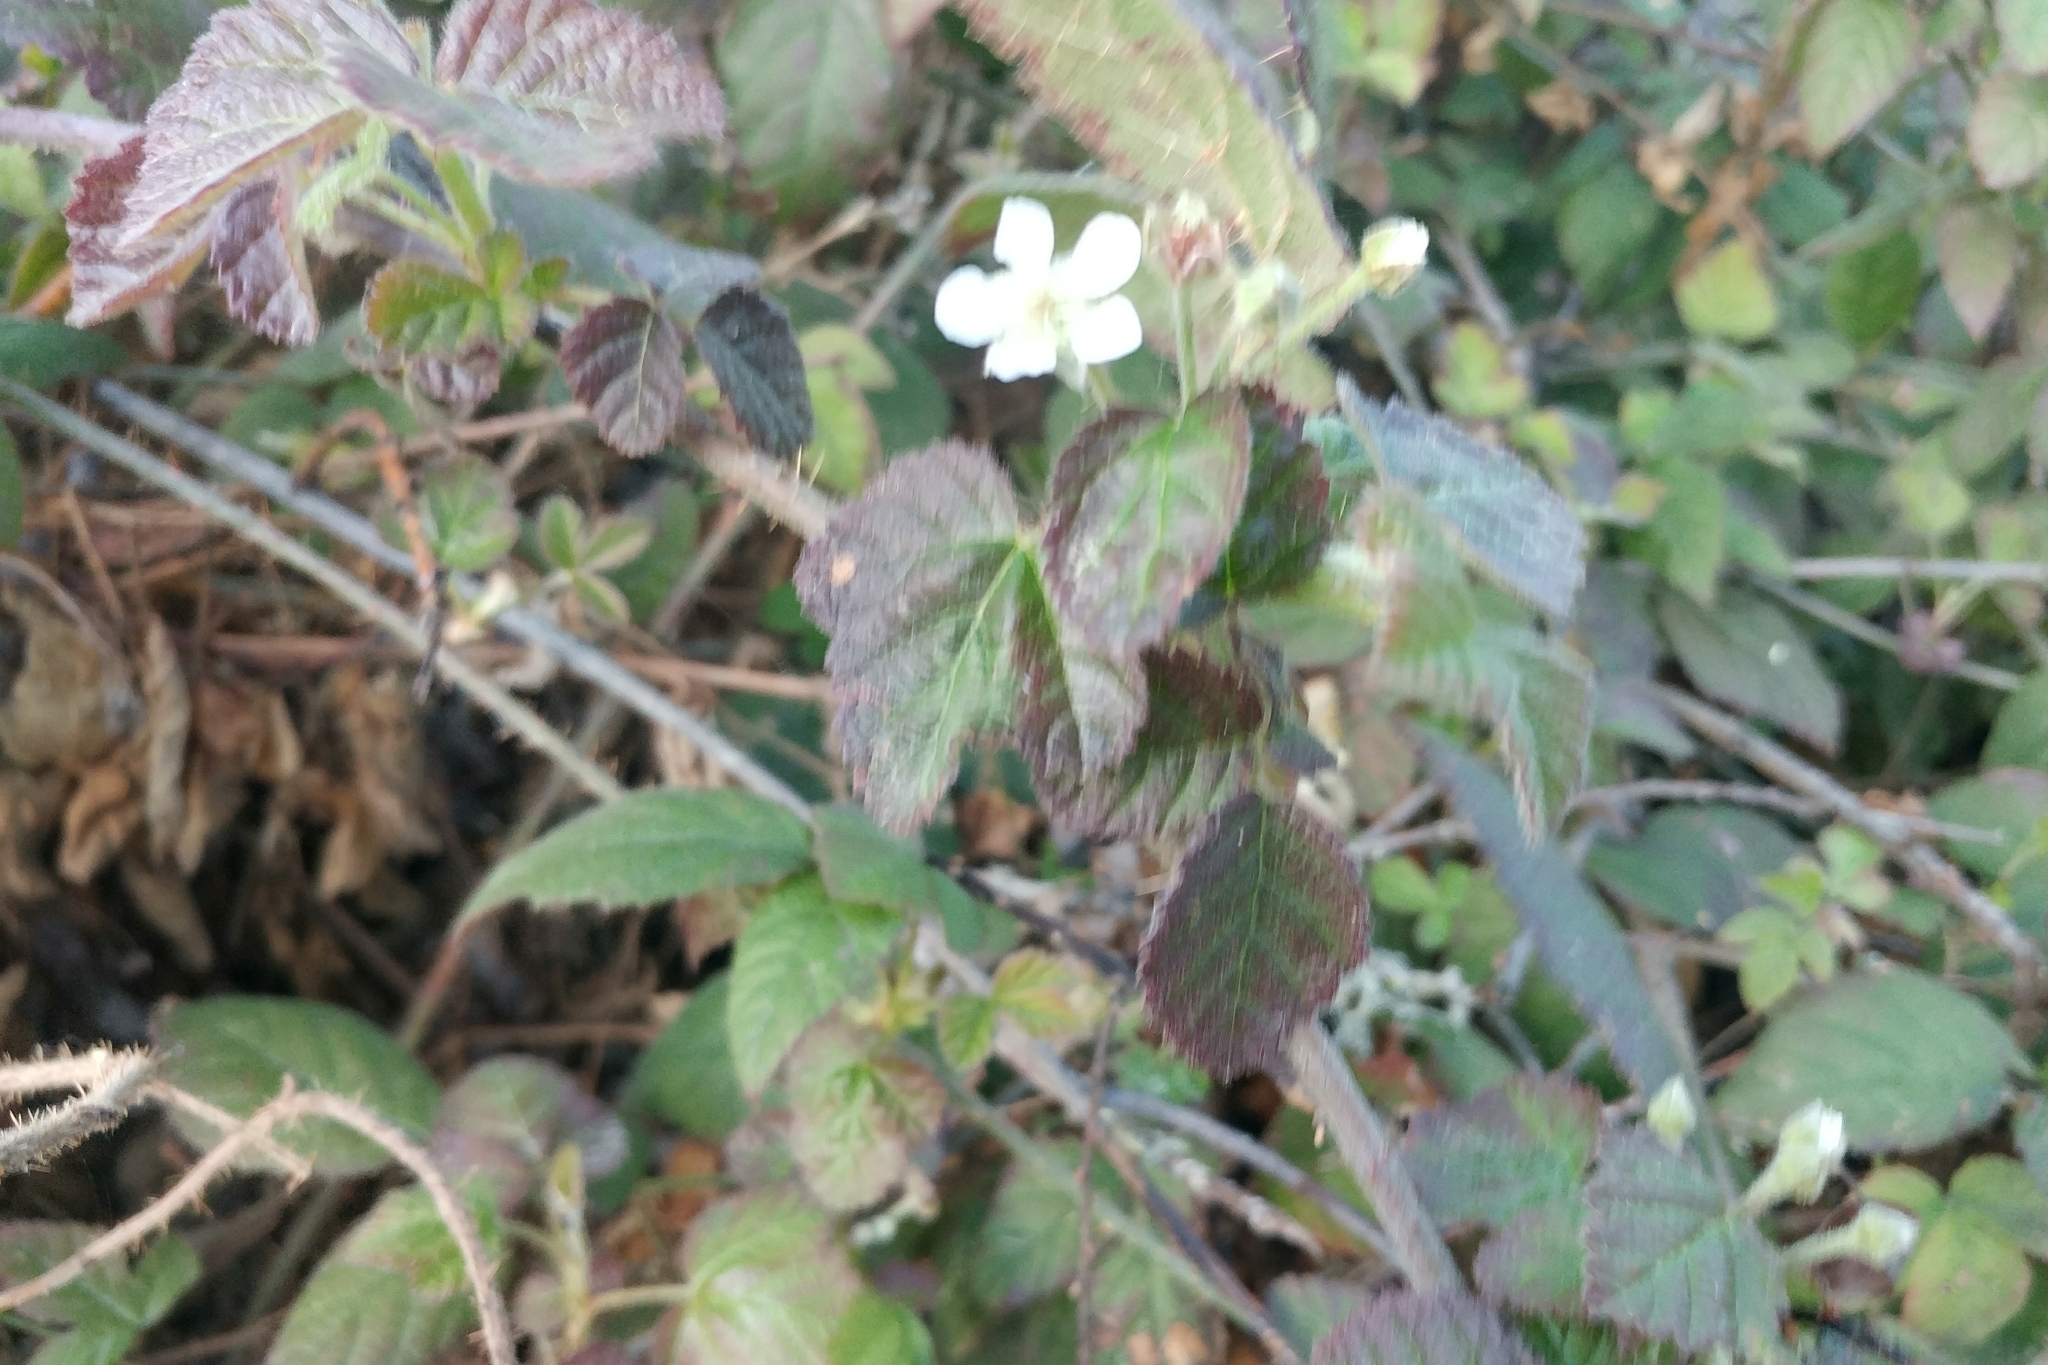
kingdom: Plantae
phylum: Tracheophyta
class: Magnoliopsida
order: Rosales
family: Rosaceae
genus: Rubus
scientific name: Rubus ursinus
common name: Pacific blackberry
